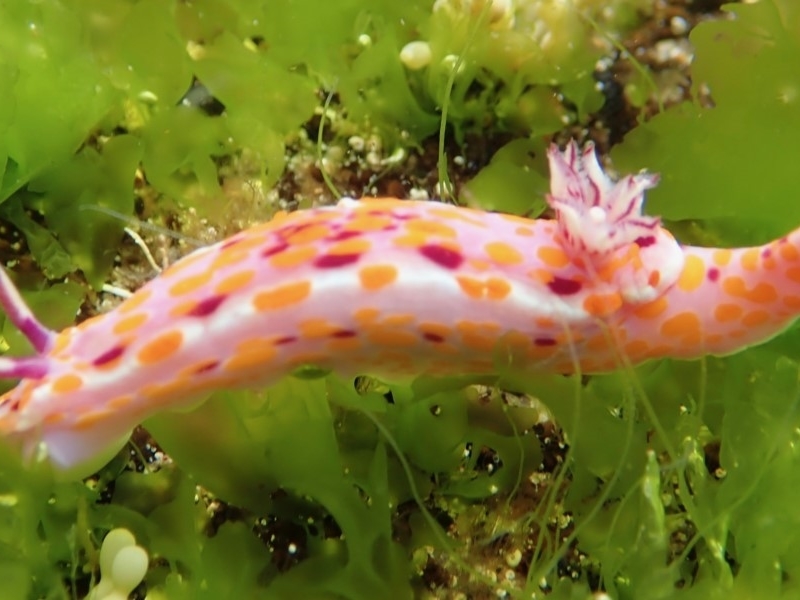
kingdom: Animalia
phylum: Mollusca
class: Gastropoda
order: Nudibranchia
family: Chromodorididae
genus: Ceratosoma
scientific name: Ceratosoma amoenum
